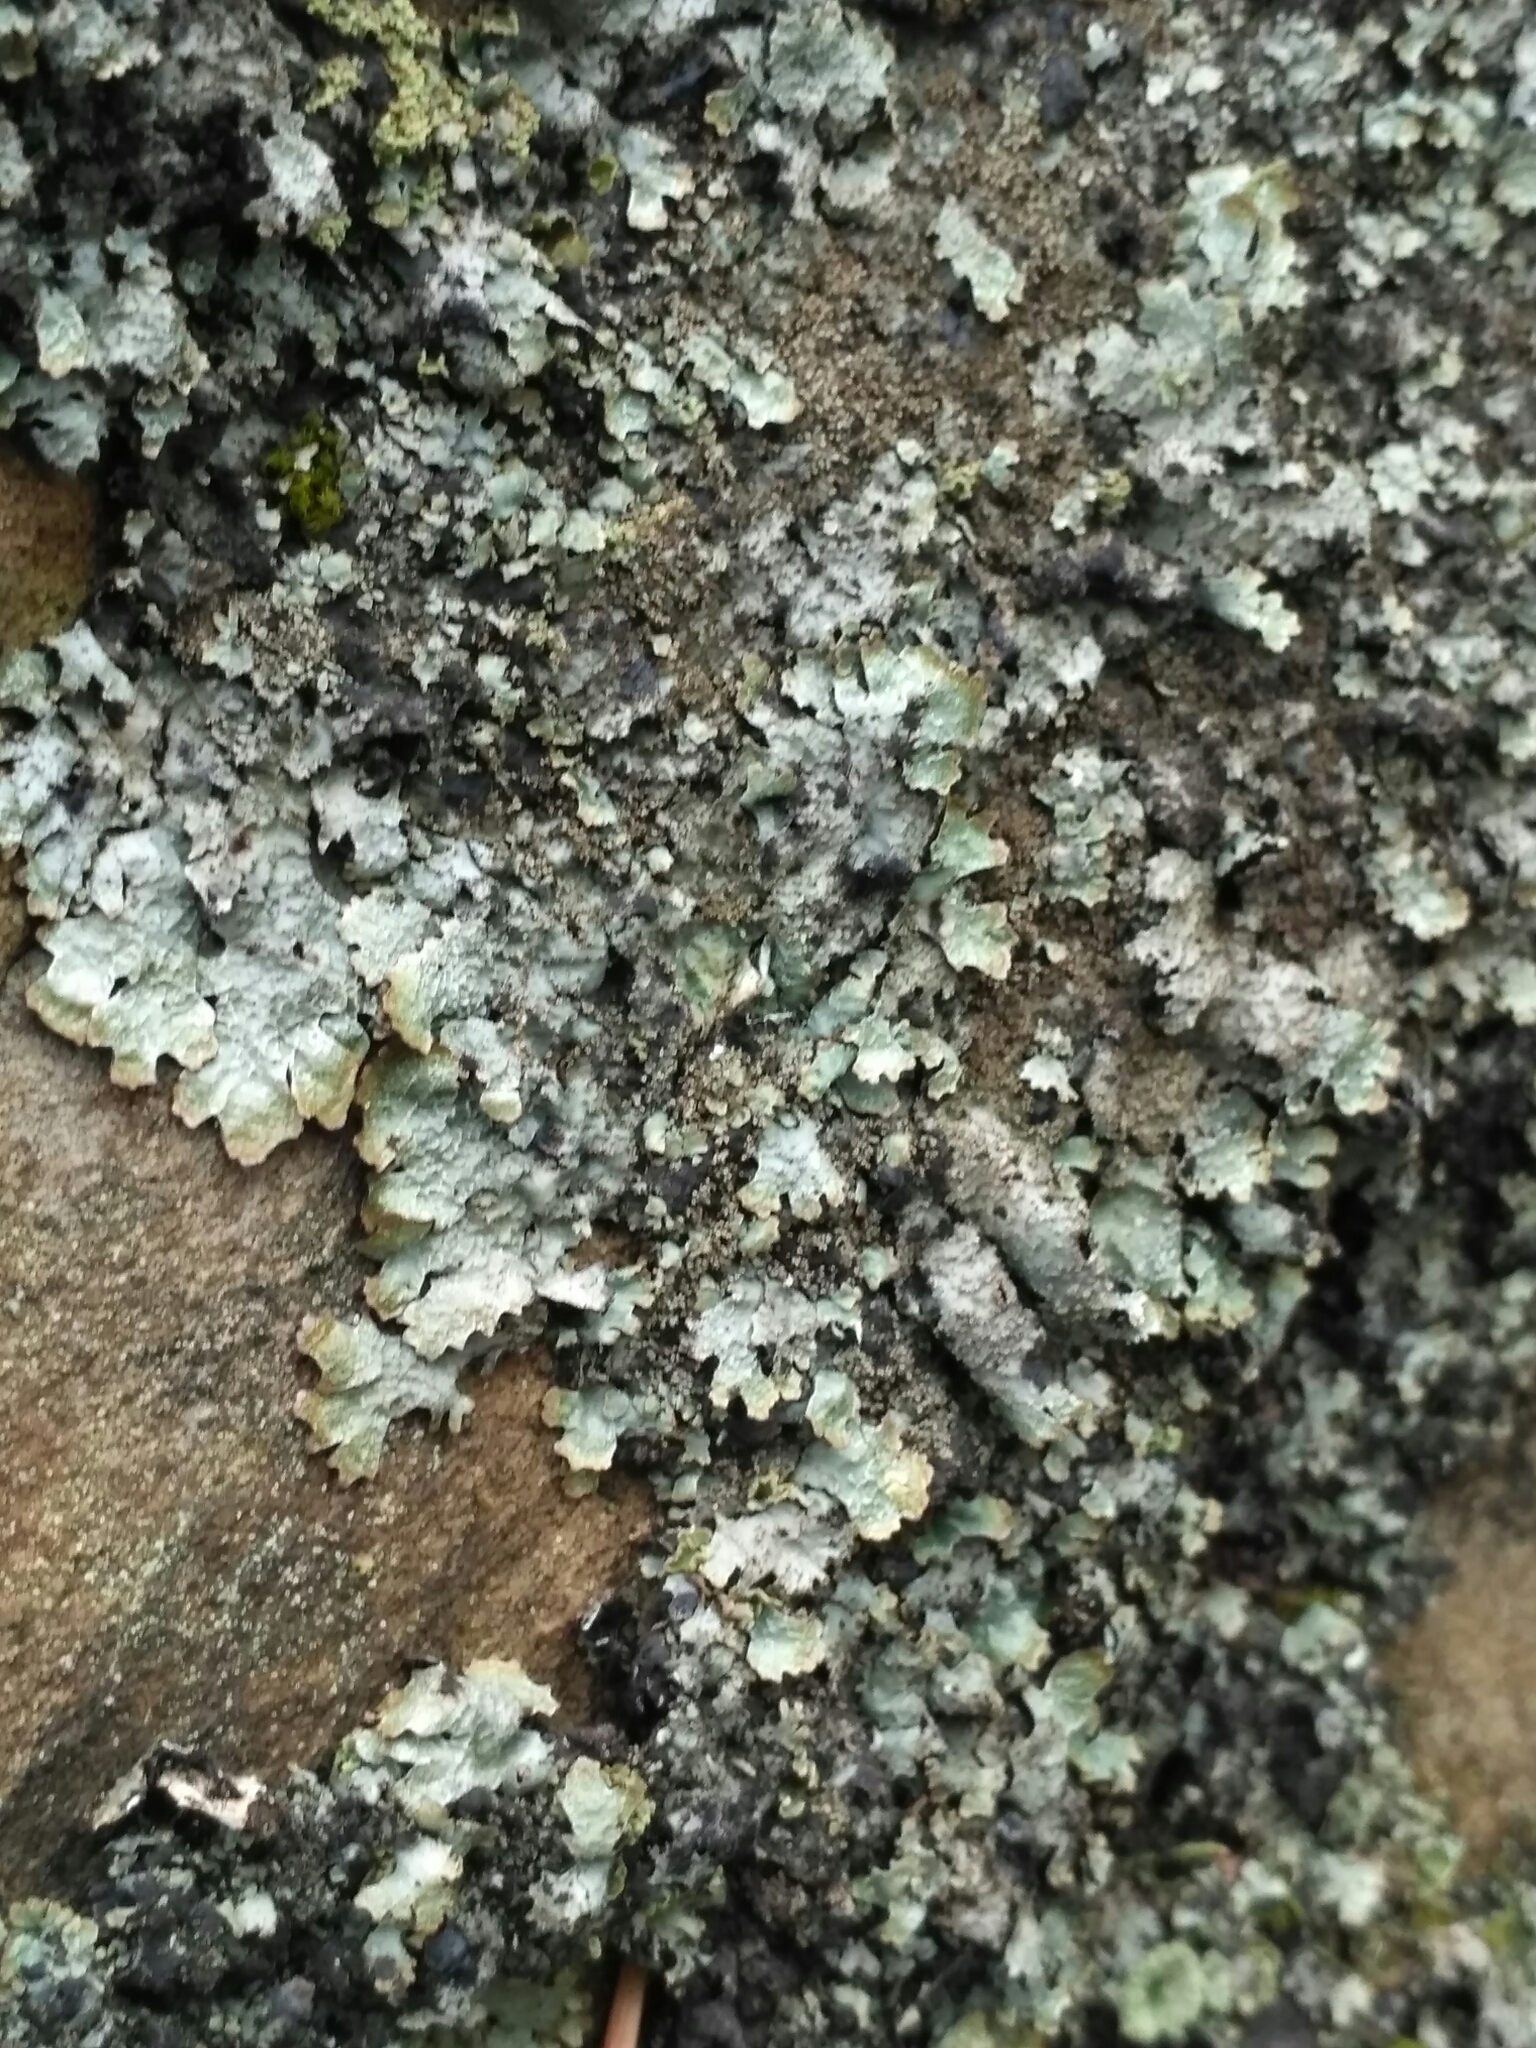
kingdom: Fungi
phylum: Ascomycota
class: Lecanoromycetes
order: Lecanorales
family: Parmeliaceae
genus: Parmelia
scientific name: Parmelia sulcata
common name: Netted shield lichen
